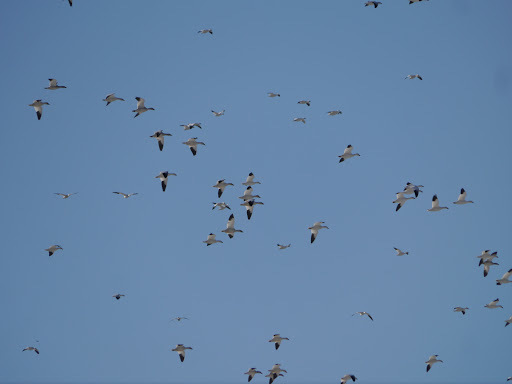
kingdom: Animalia
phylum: Chordata
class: Aves
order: Anseriformes
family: Anatidae
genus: Anser
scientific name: Anser caerulescens
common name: Snow goose
